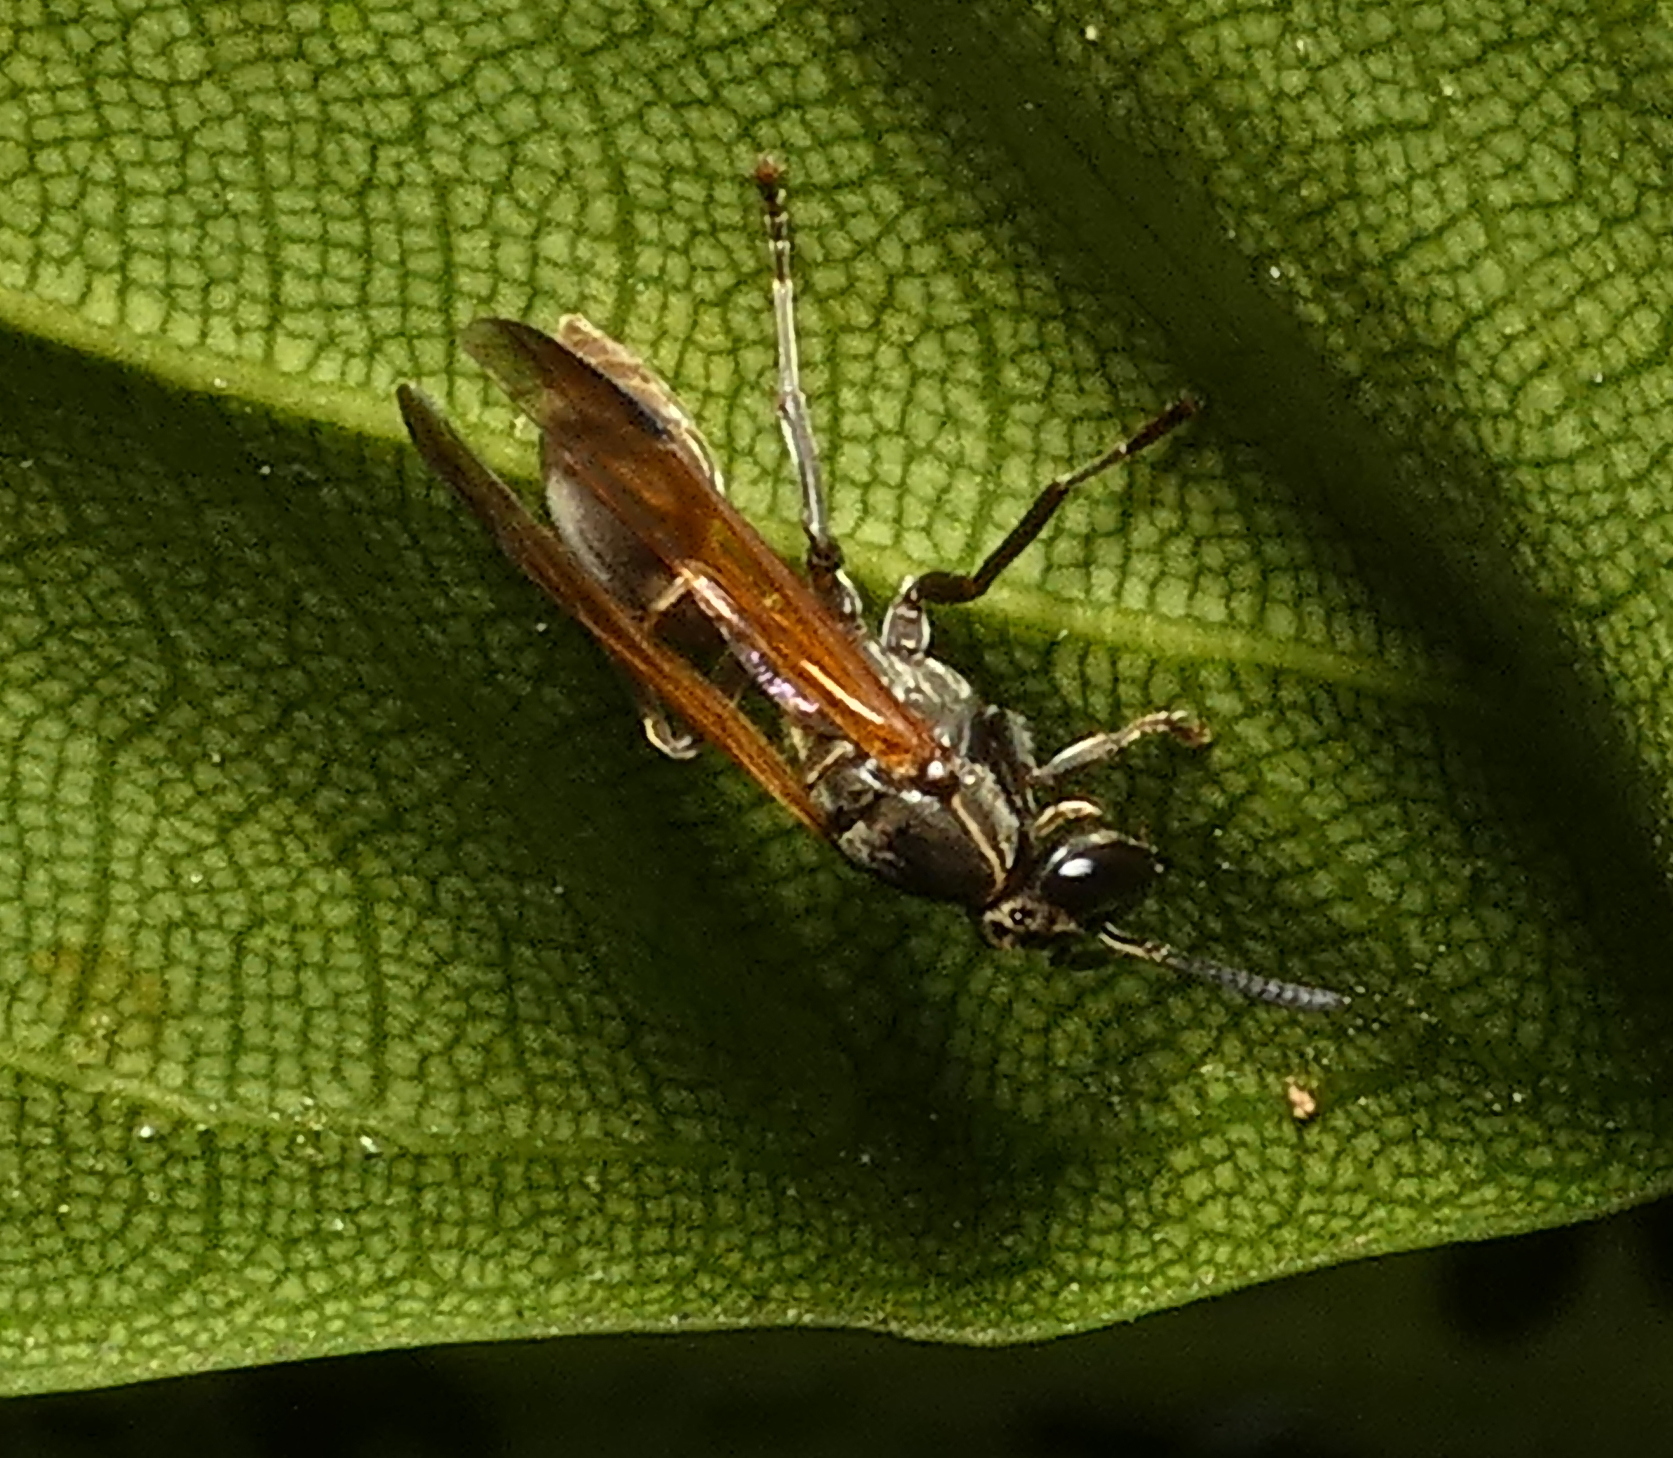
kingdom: Animalia
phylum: Arthropoda
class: Insecta
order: Hymenoptera
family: Eumenidae
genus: Polybia
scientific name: Polybia rejecta
